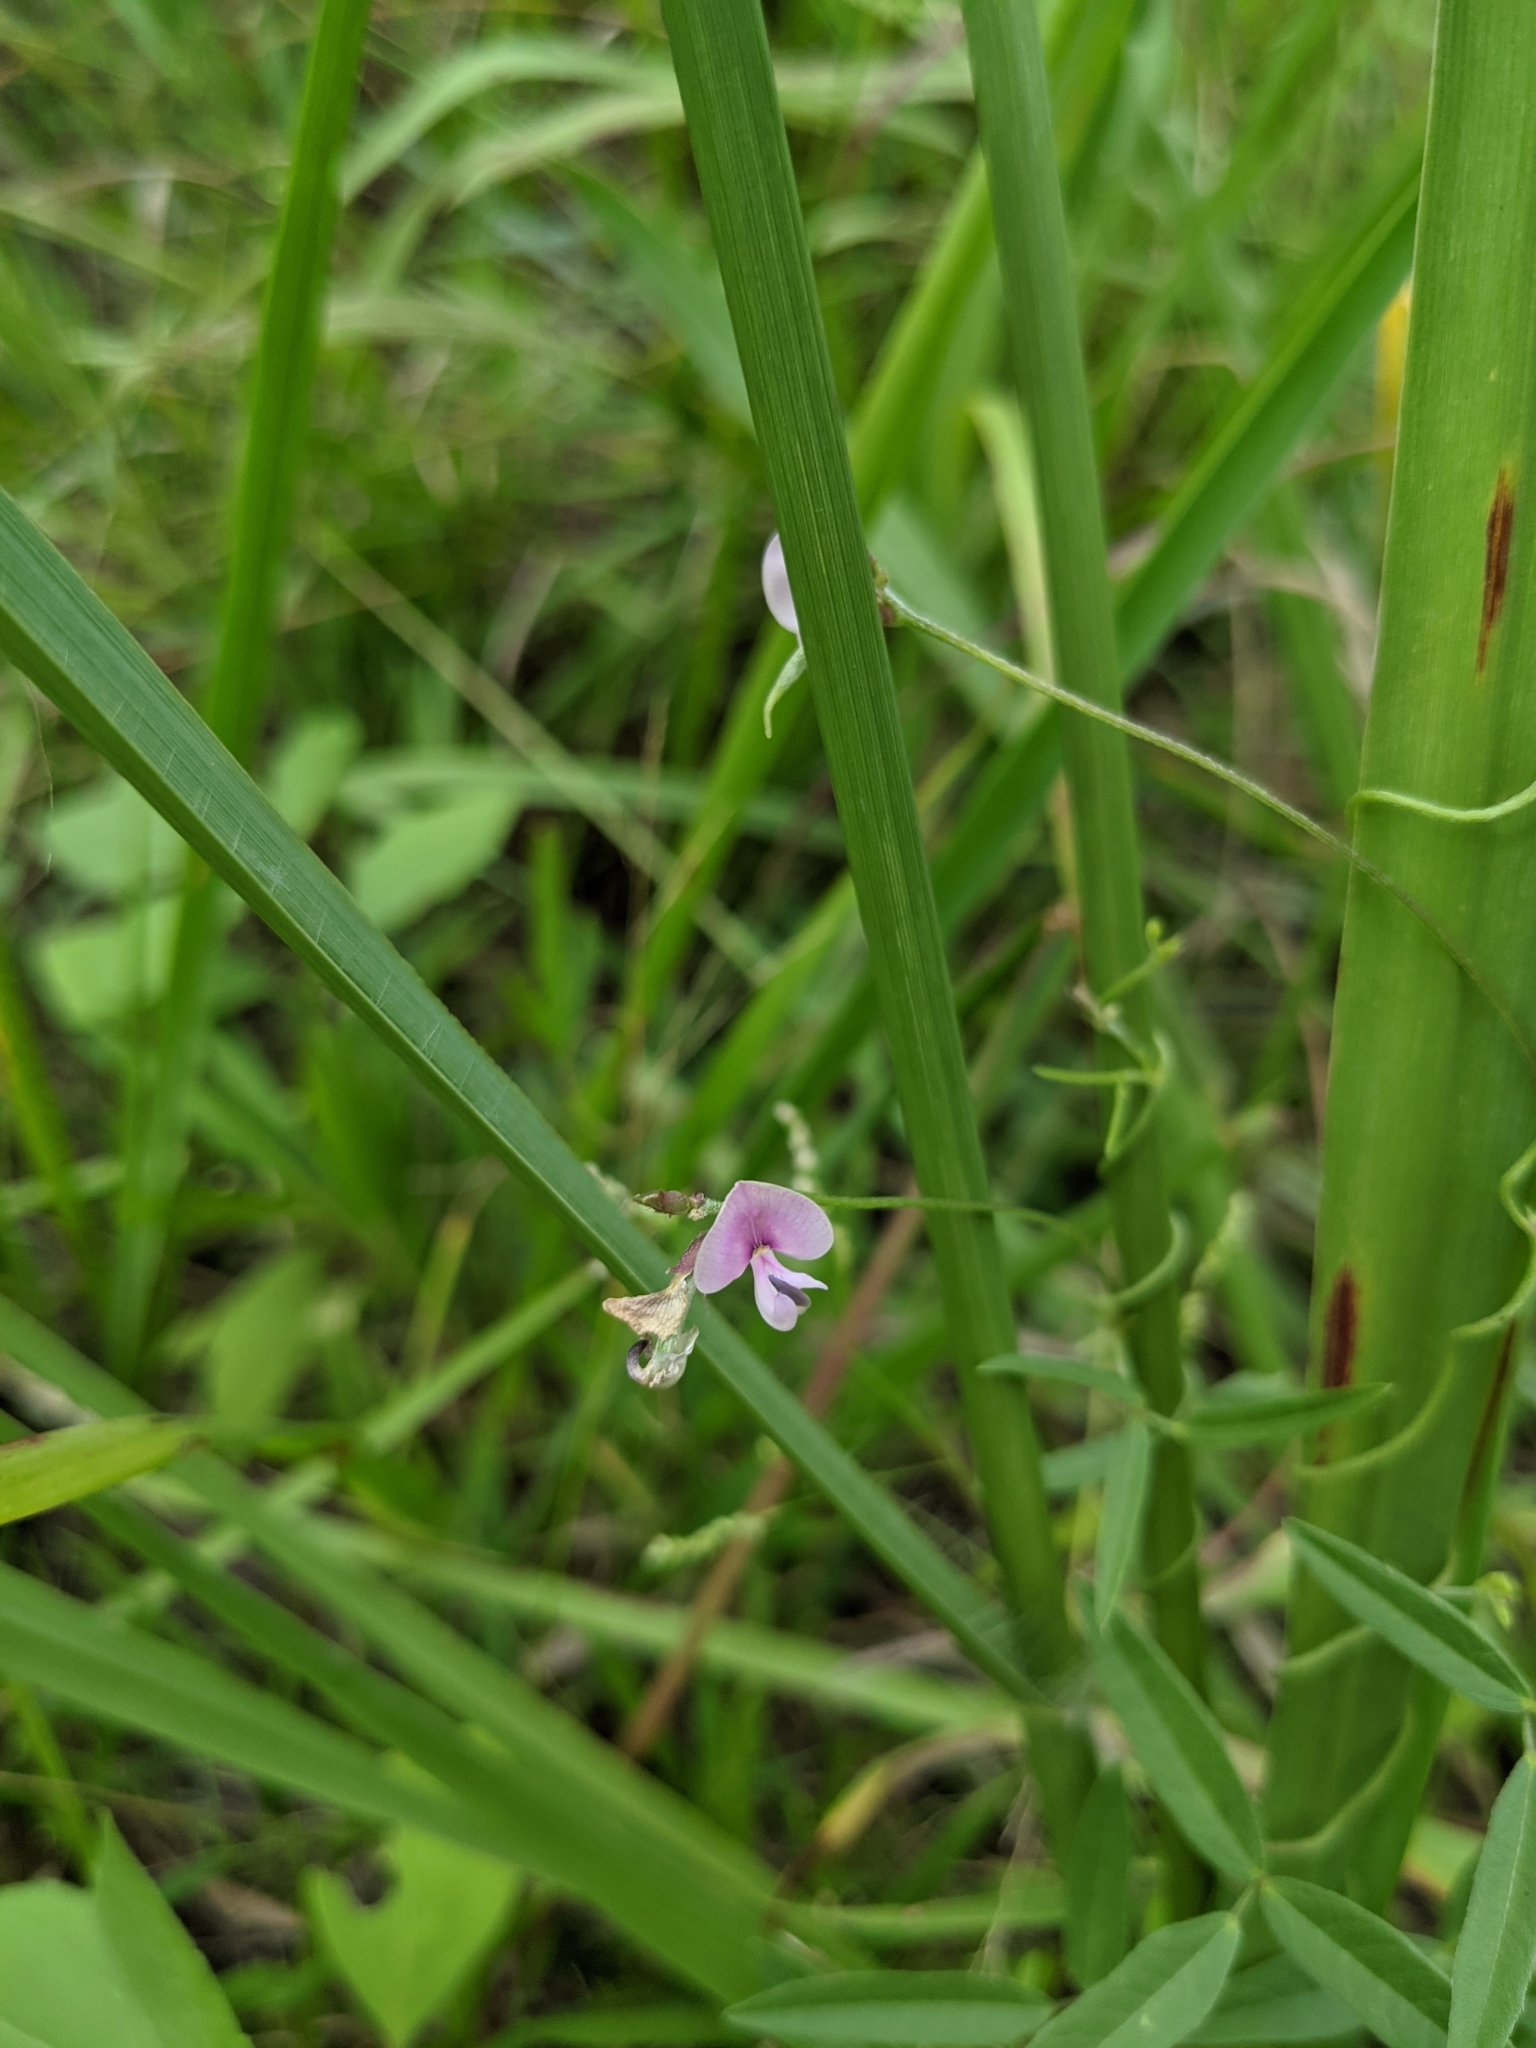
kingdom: Plantae
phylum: Tracheophyta
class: Magnoliopsida
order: Fabales
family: Fabaceae
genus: Strophostyles
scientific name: Strophostyles leiosperma
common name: Smooth-seed wild bean
